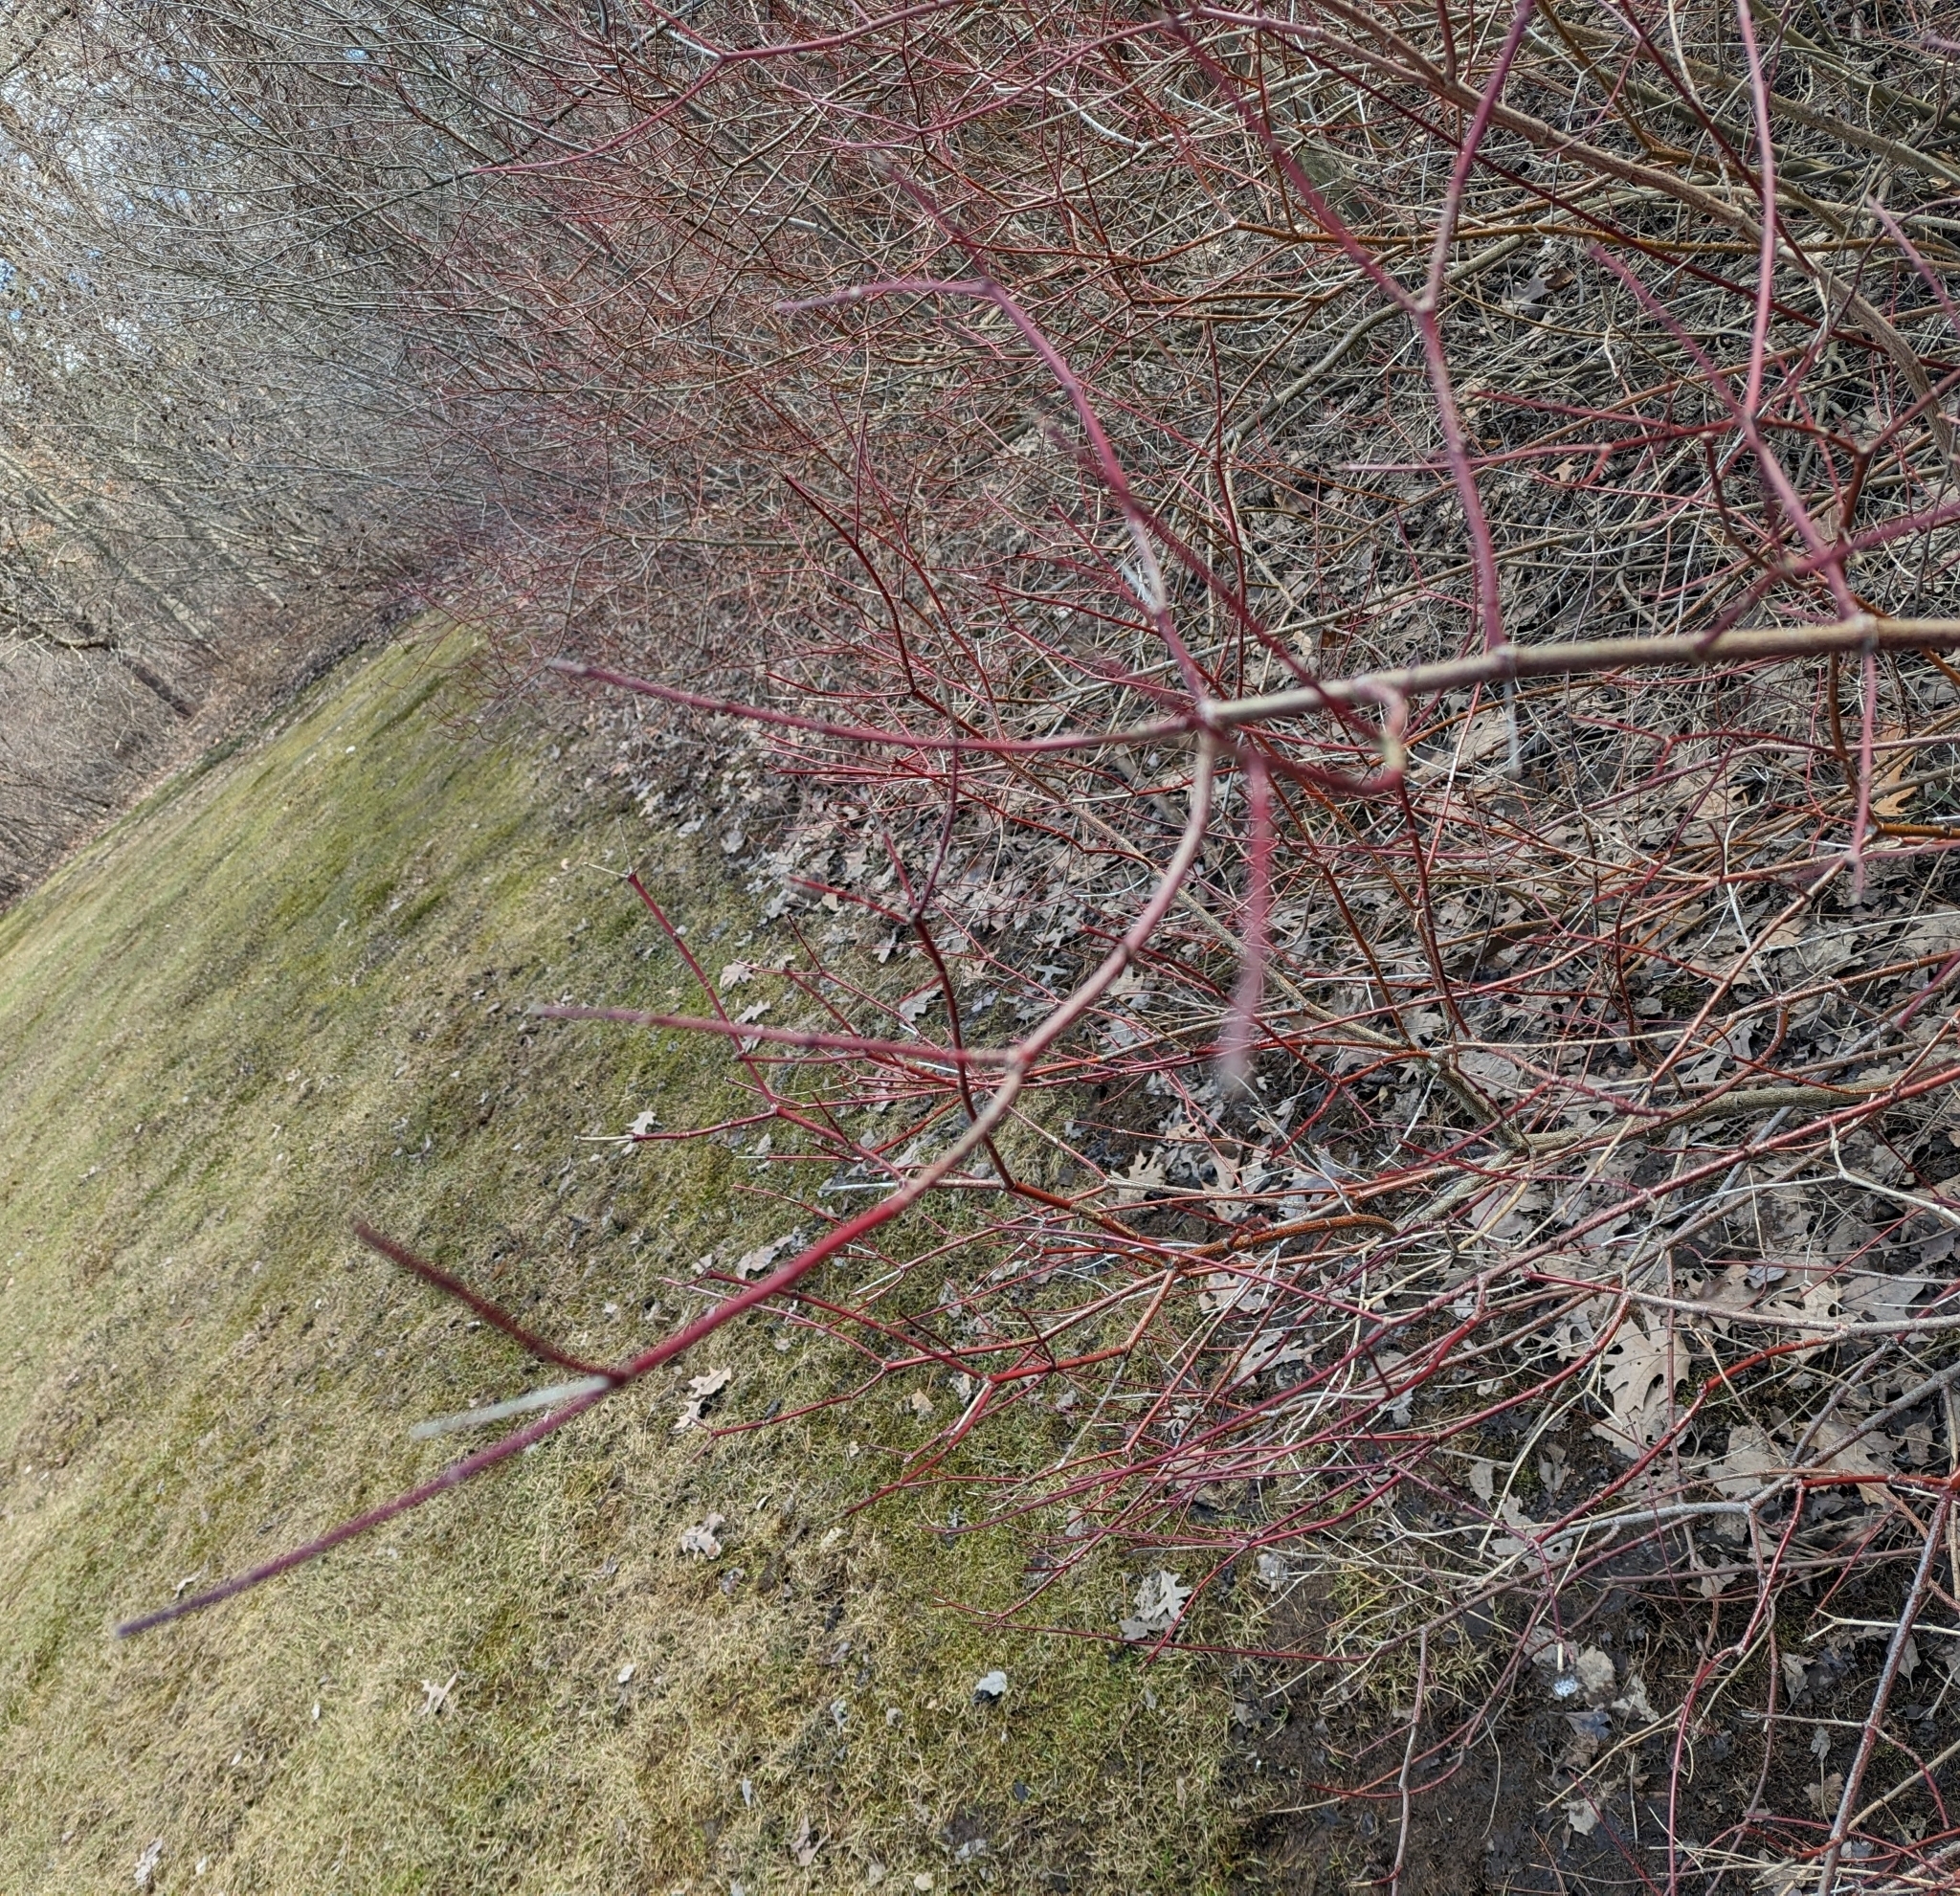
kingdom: Plantae
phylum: Tracheophyta
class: Magnoliopsida
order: Cornales
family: Cornaceae
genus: Cornus
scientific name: Cornus amomum
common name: Silky dogwood
